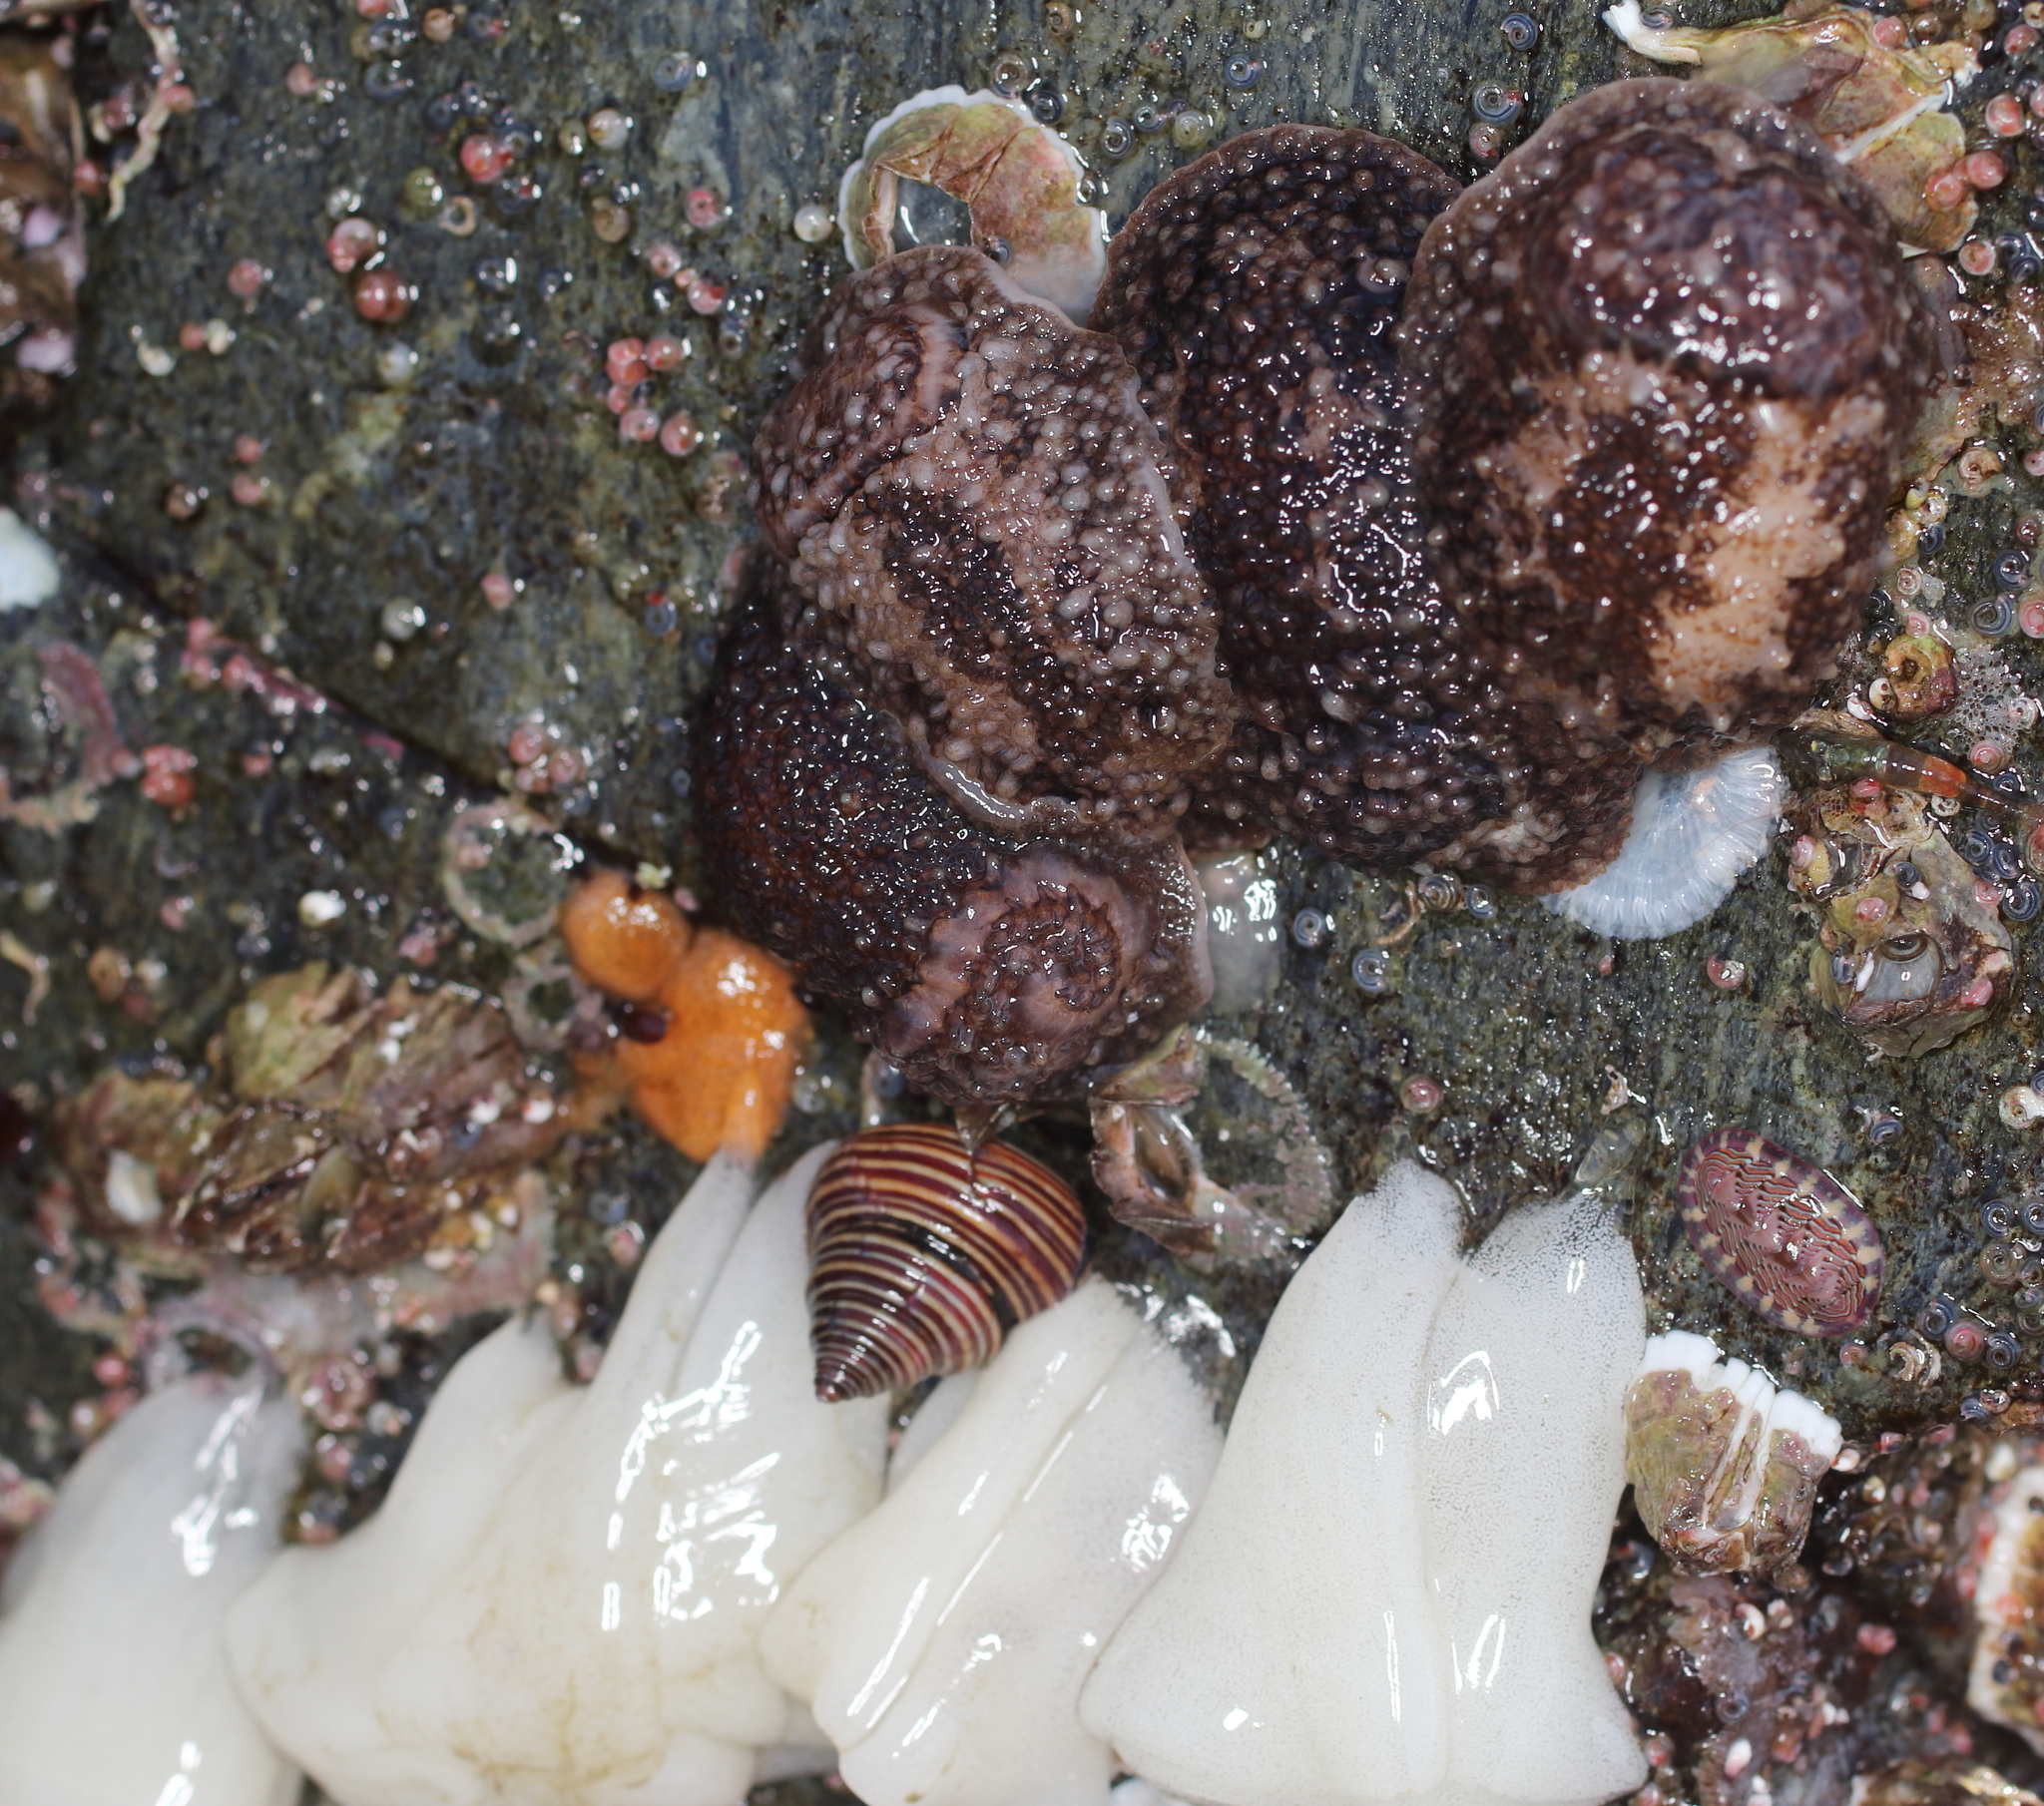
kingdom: Animalia
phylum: Mollusca
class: Gastropoda
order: Nudibranchia
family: Onchidorididae
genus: Onchidoris
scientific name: Onchidoris bilamellata
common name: Barnacle-eating onchidoris
